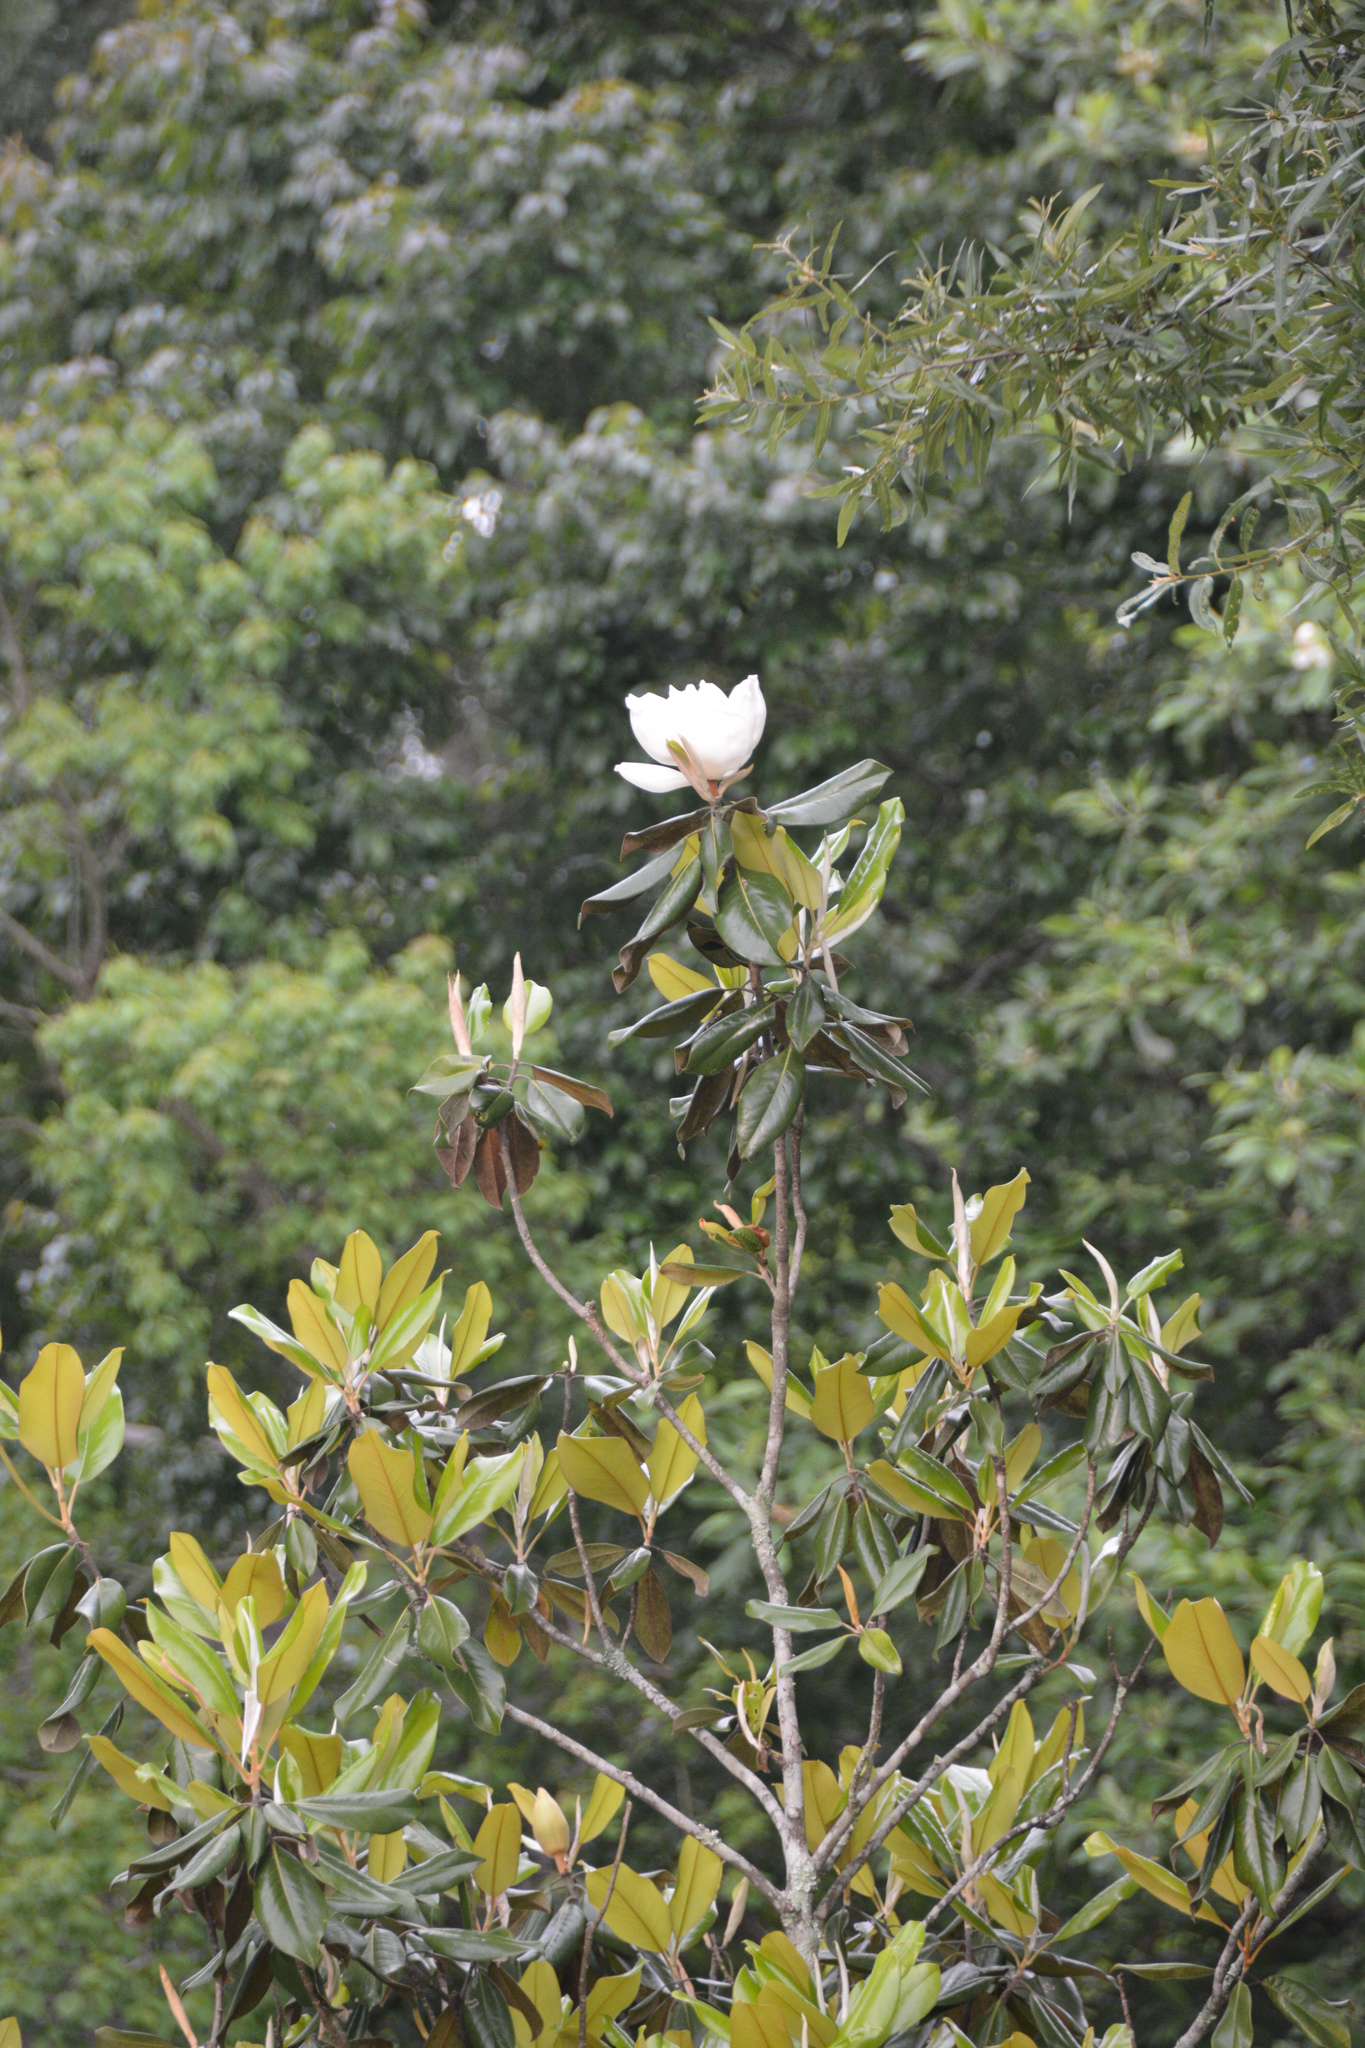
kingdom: Plantae
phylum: Tracheophyta
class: Magnoliopsida
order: Magnoliales
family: Magnoliaceae
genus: Magnolia
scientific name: Magnolia virginiana
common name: Swamp bay
